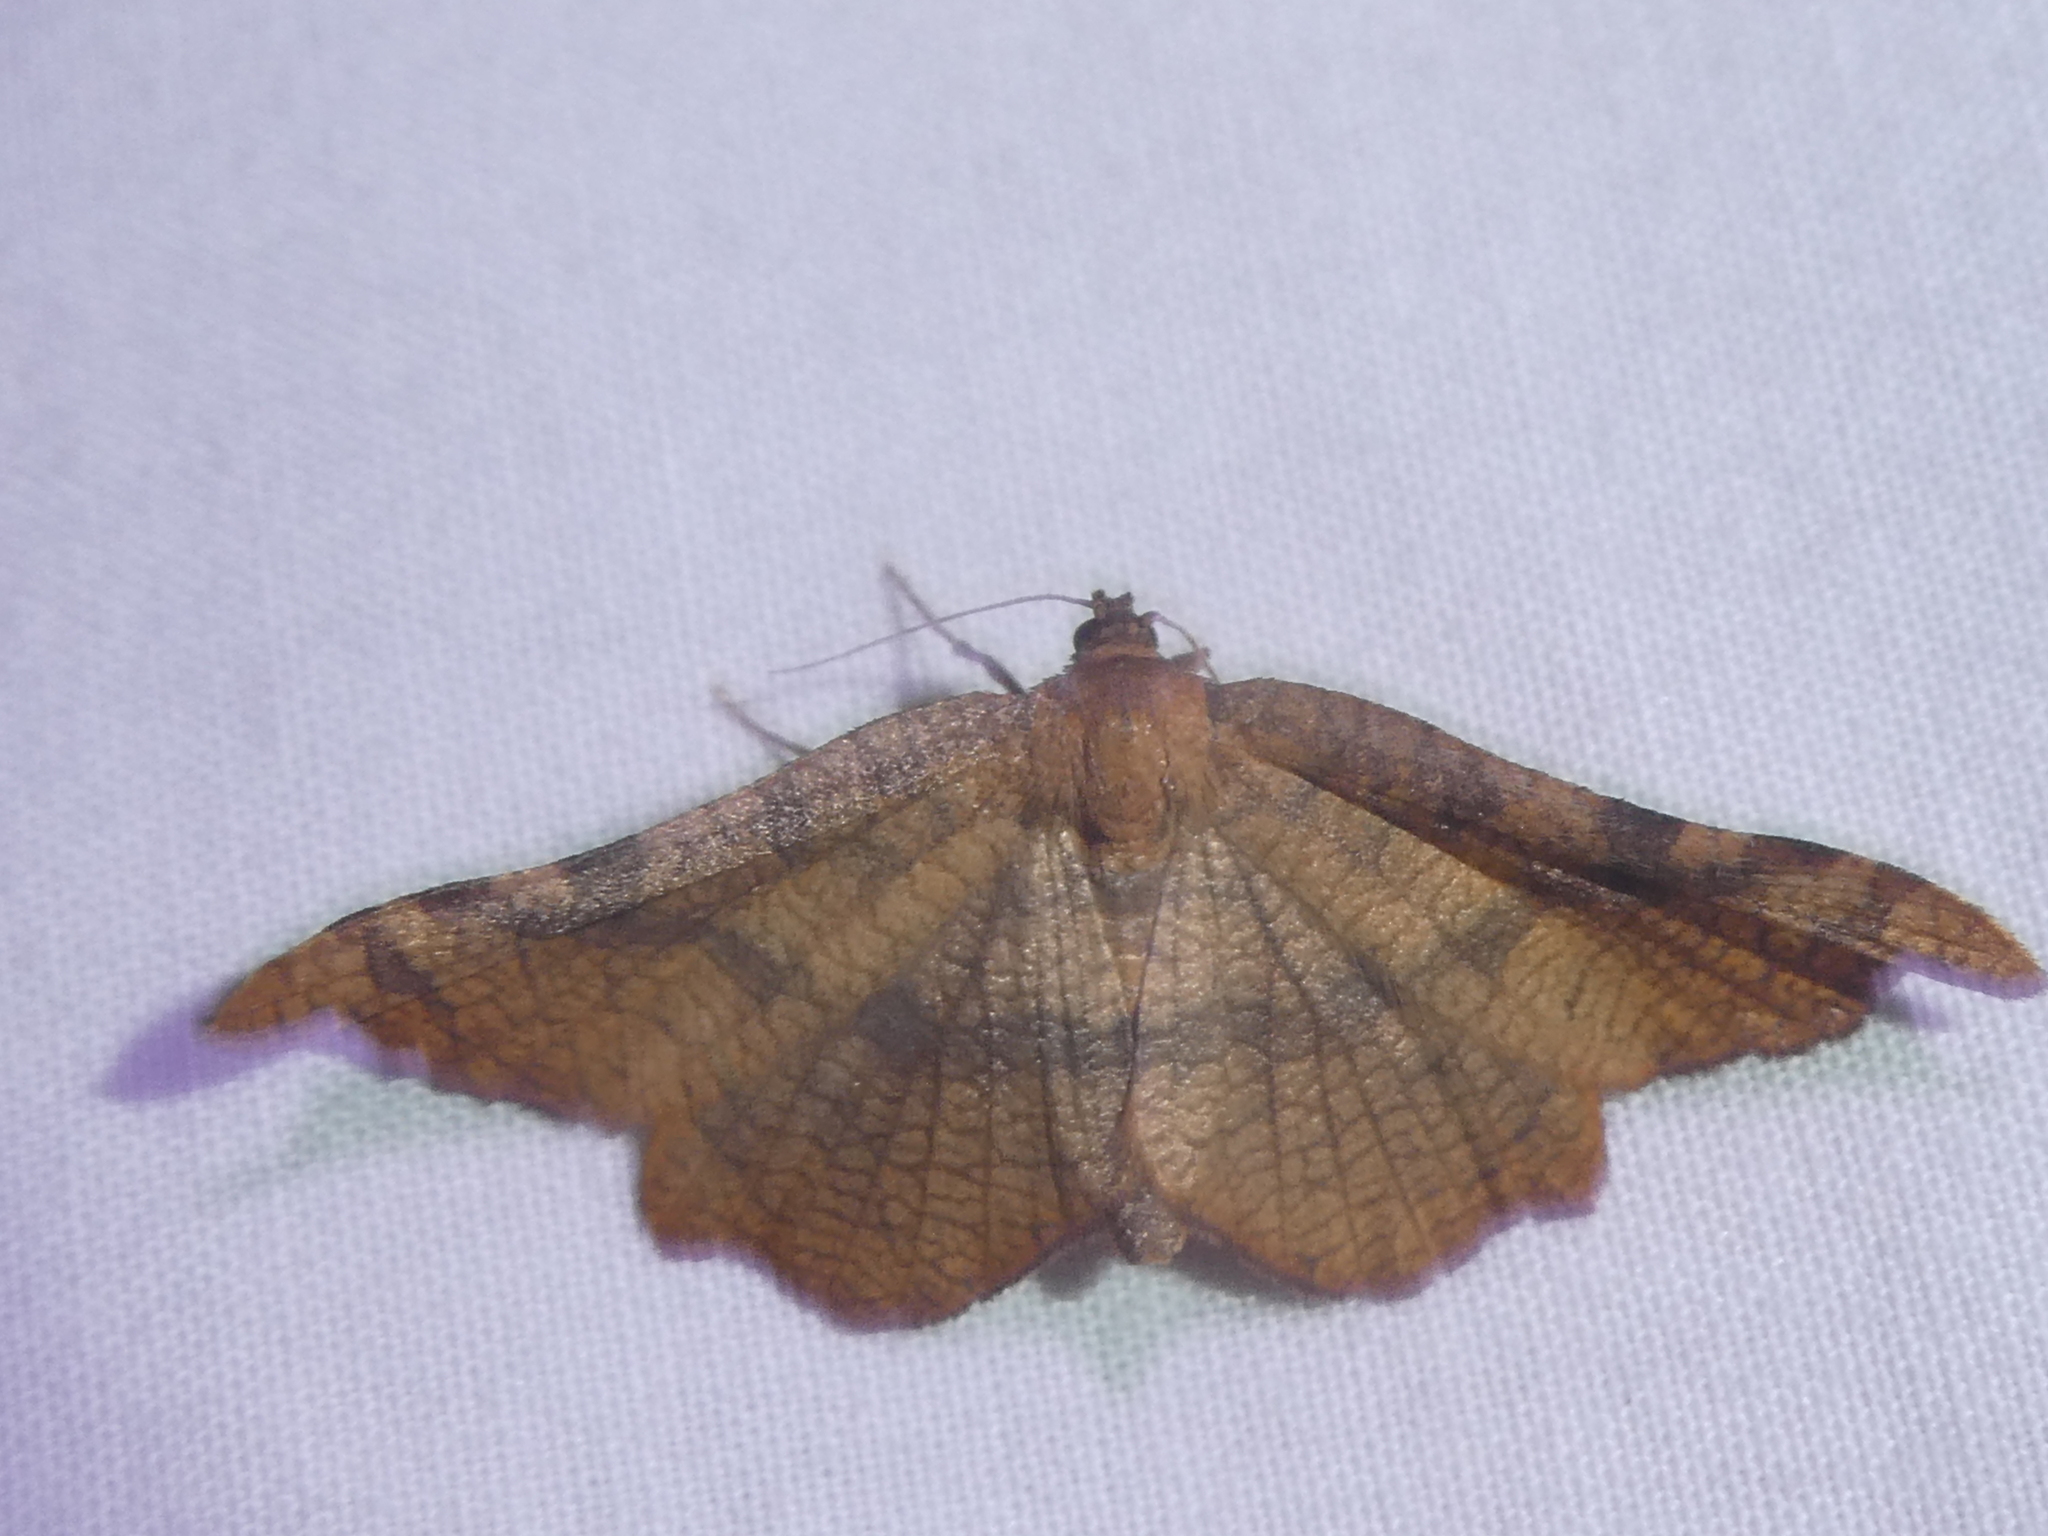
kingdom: Animalia
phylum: Arthropoda
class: Insecta
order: Lepidoptera
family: Thyrididae
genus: Morova
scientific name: Morova subfasciata
